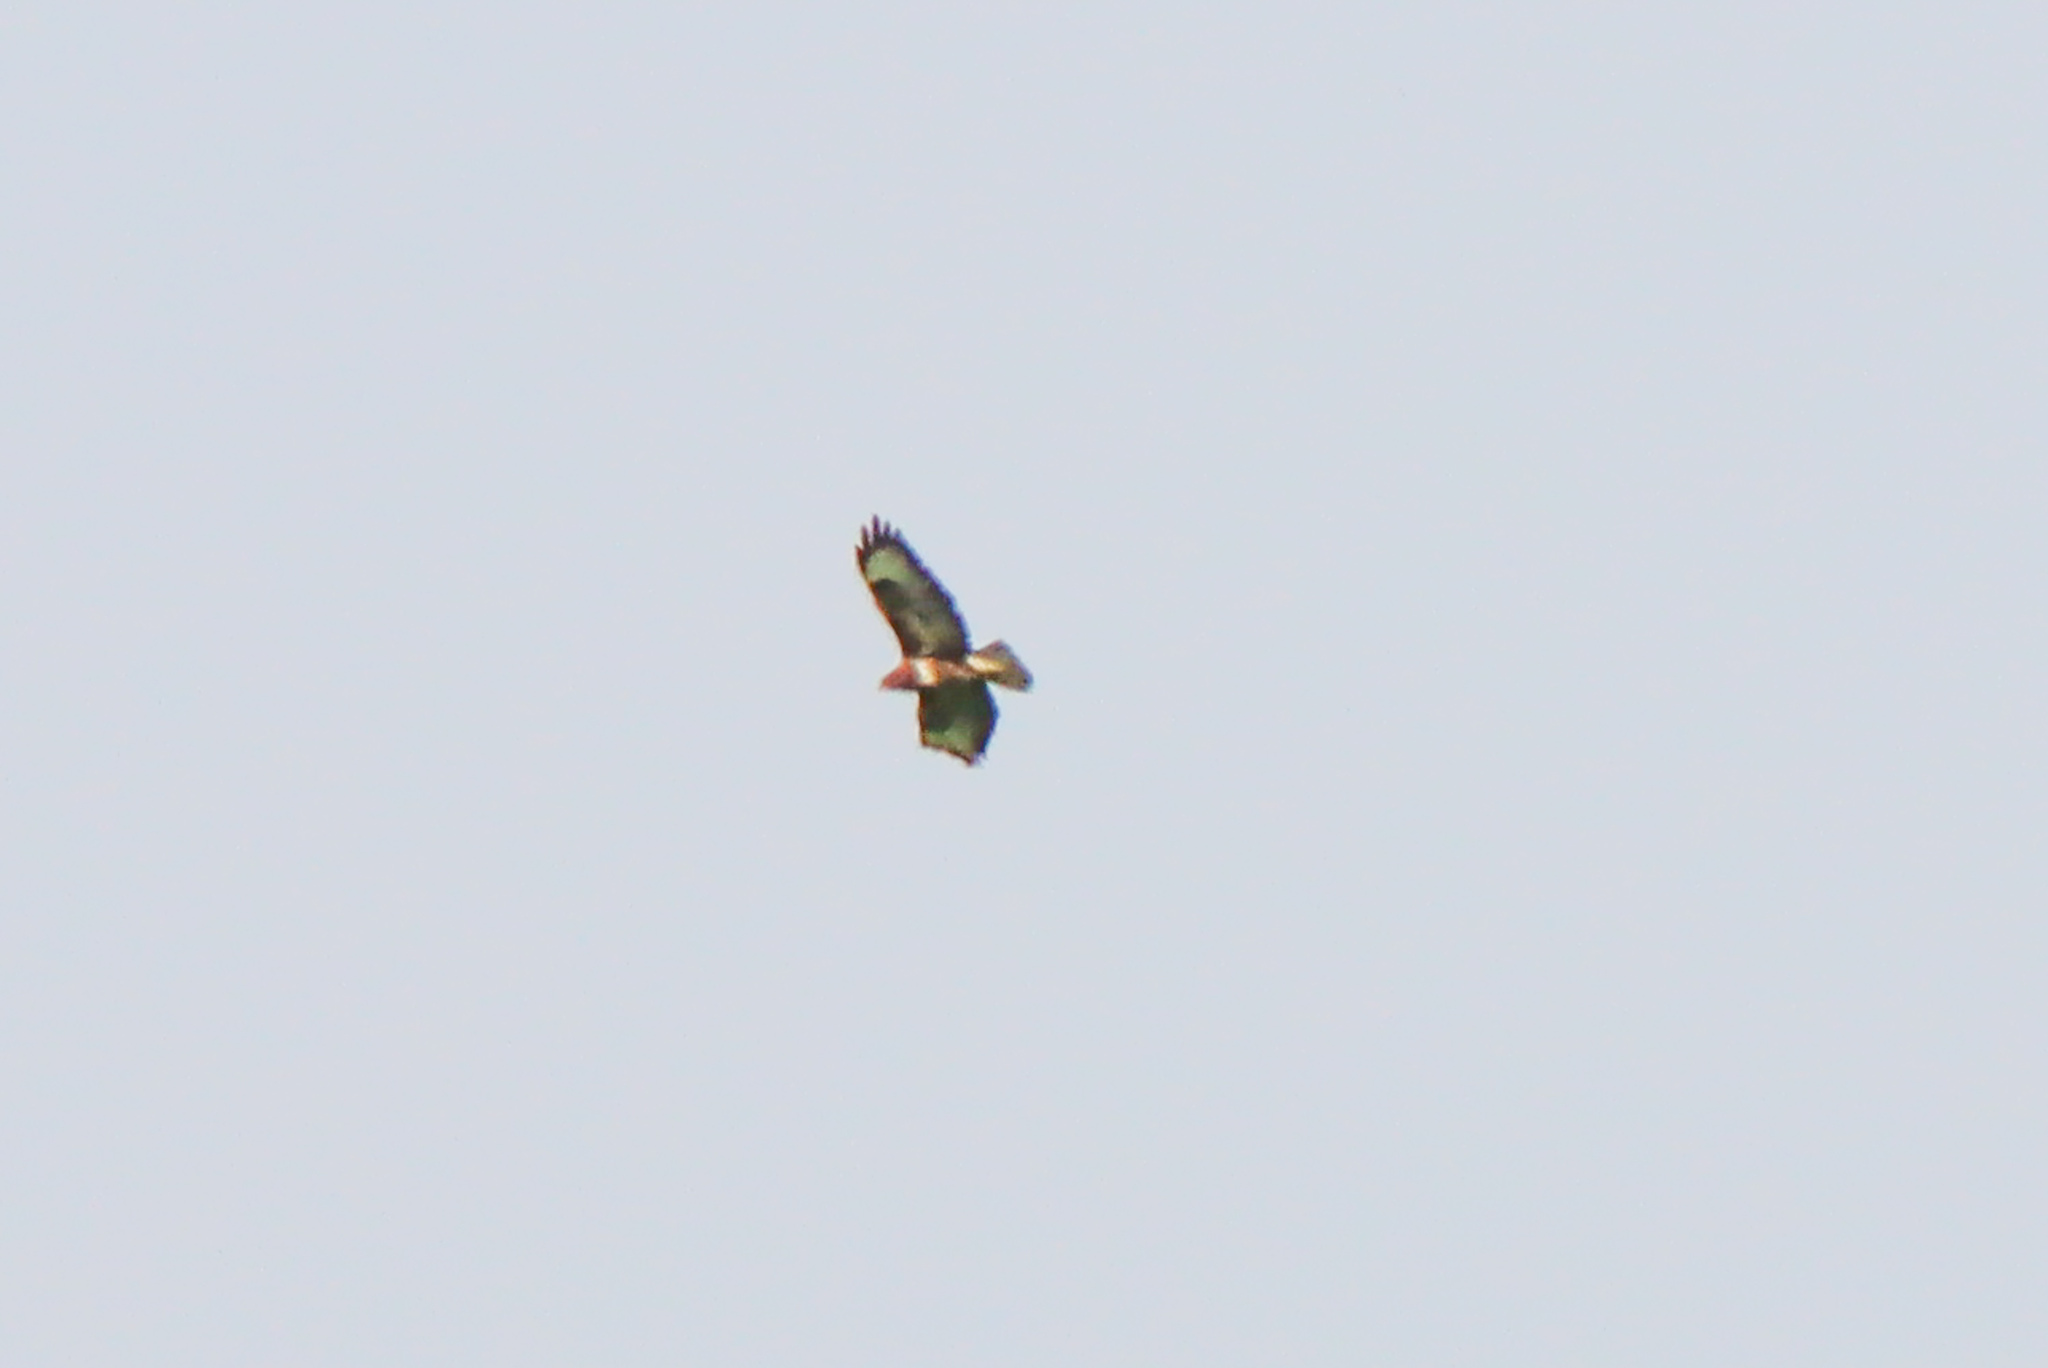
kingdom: Animalia
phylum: Chordata
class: Aves
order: Accipitriformes
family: Accipitridae
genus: Buteo
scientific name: Buteo buteo
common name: Common buzzard
